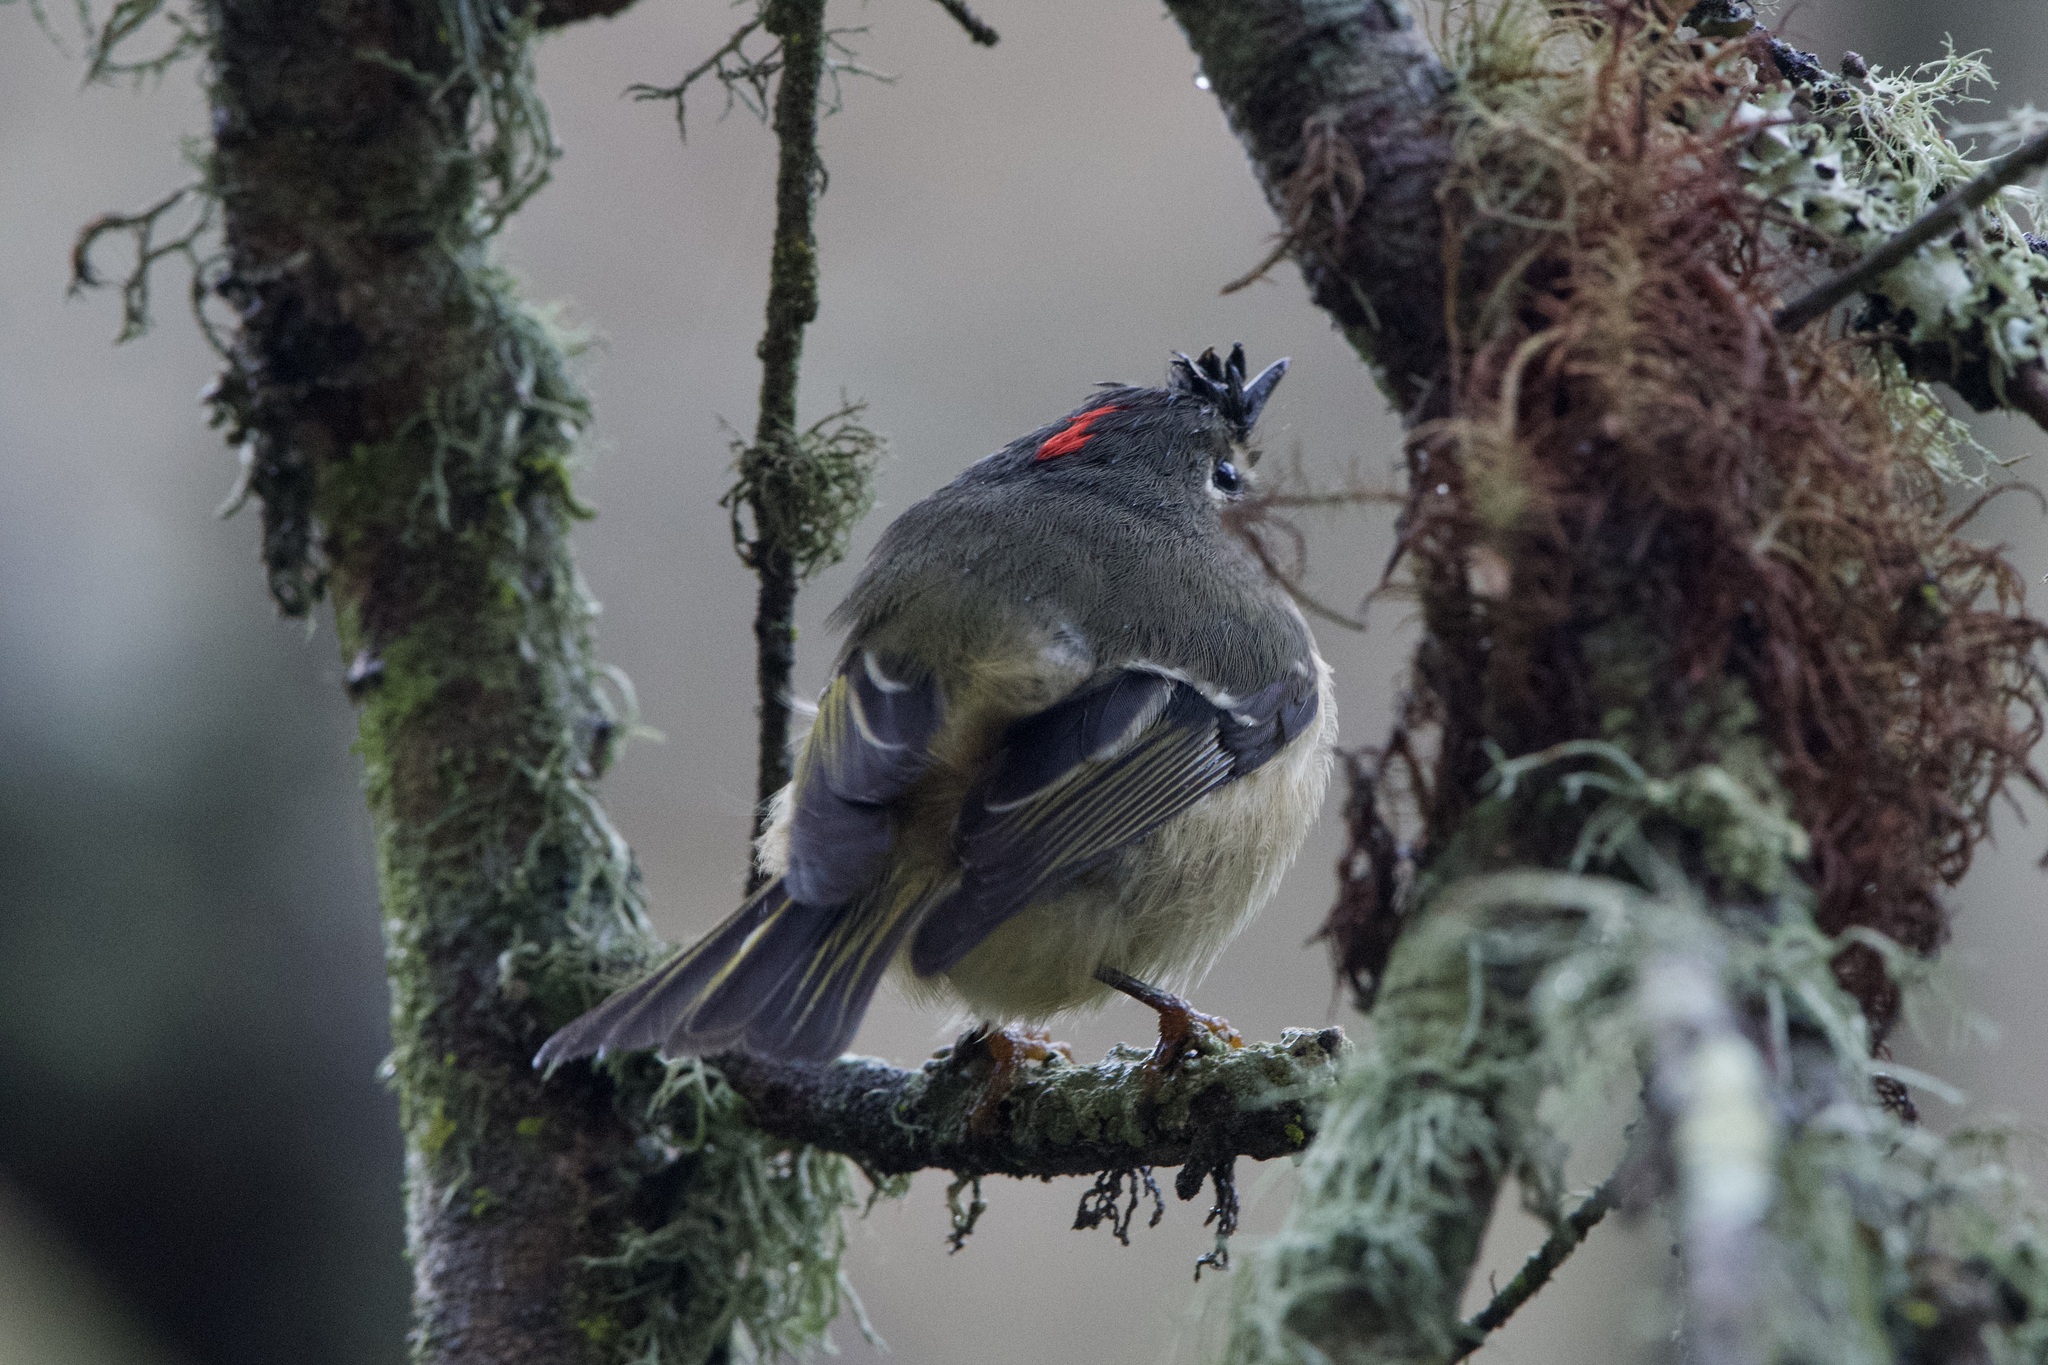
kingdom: Animalia
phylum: Chordata
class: Aves
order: Passeriformes
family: Regulidae
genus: Regulus
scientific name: Regulus calendula
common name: Ruby-crowned kinglet
